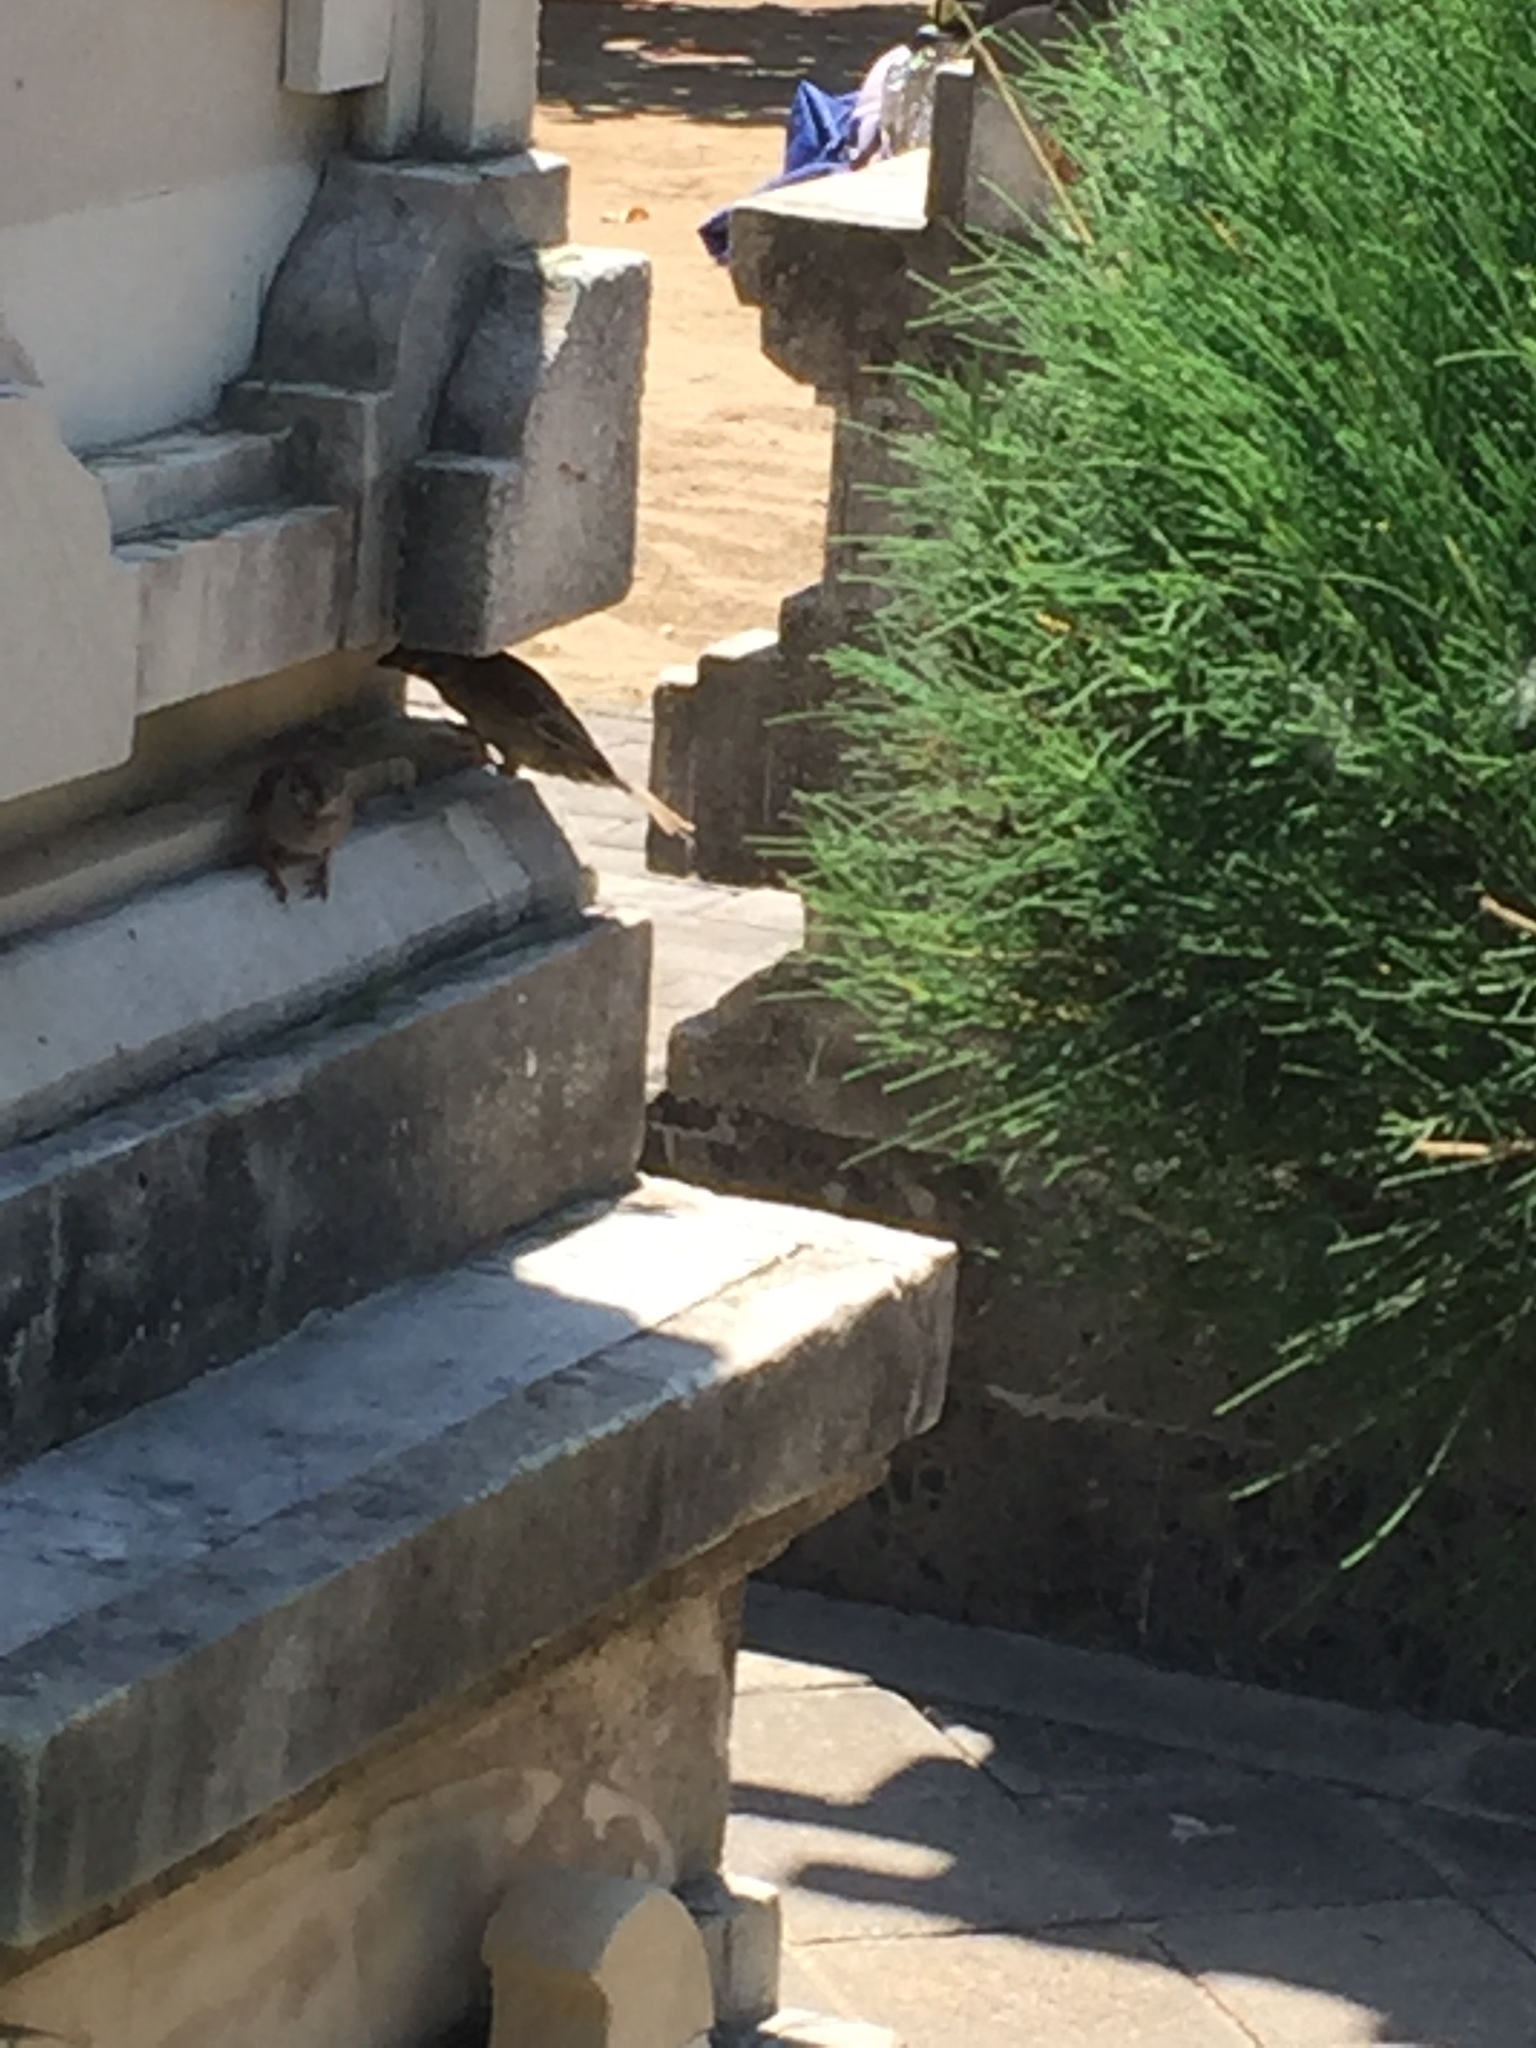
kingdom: Animalia
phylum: Chordata
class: Aves
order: Passeriformes
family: Passeridae
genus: Passer
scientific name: Passer montanus
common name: Eurasian tree sparrow
